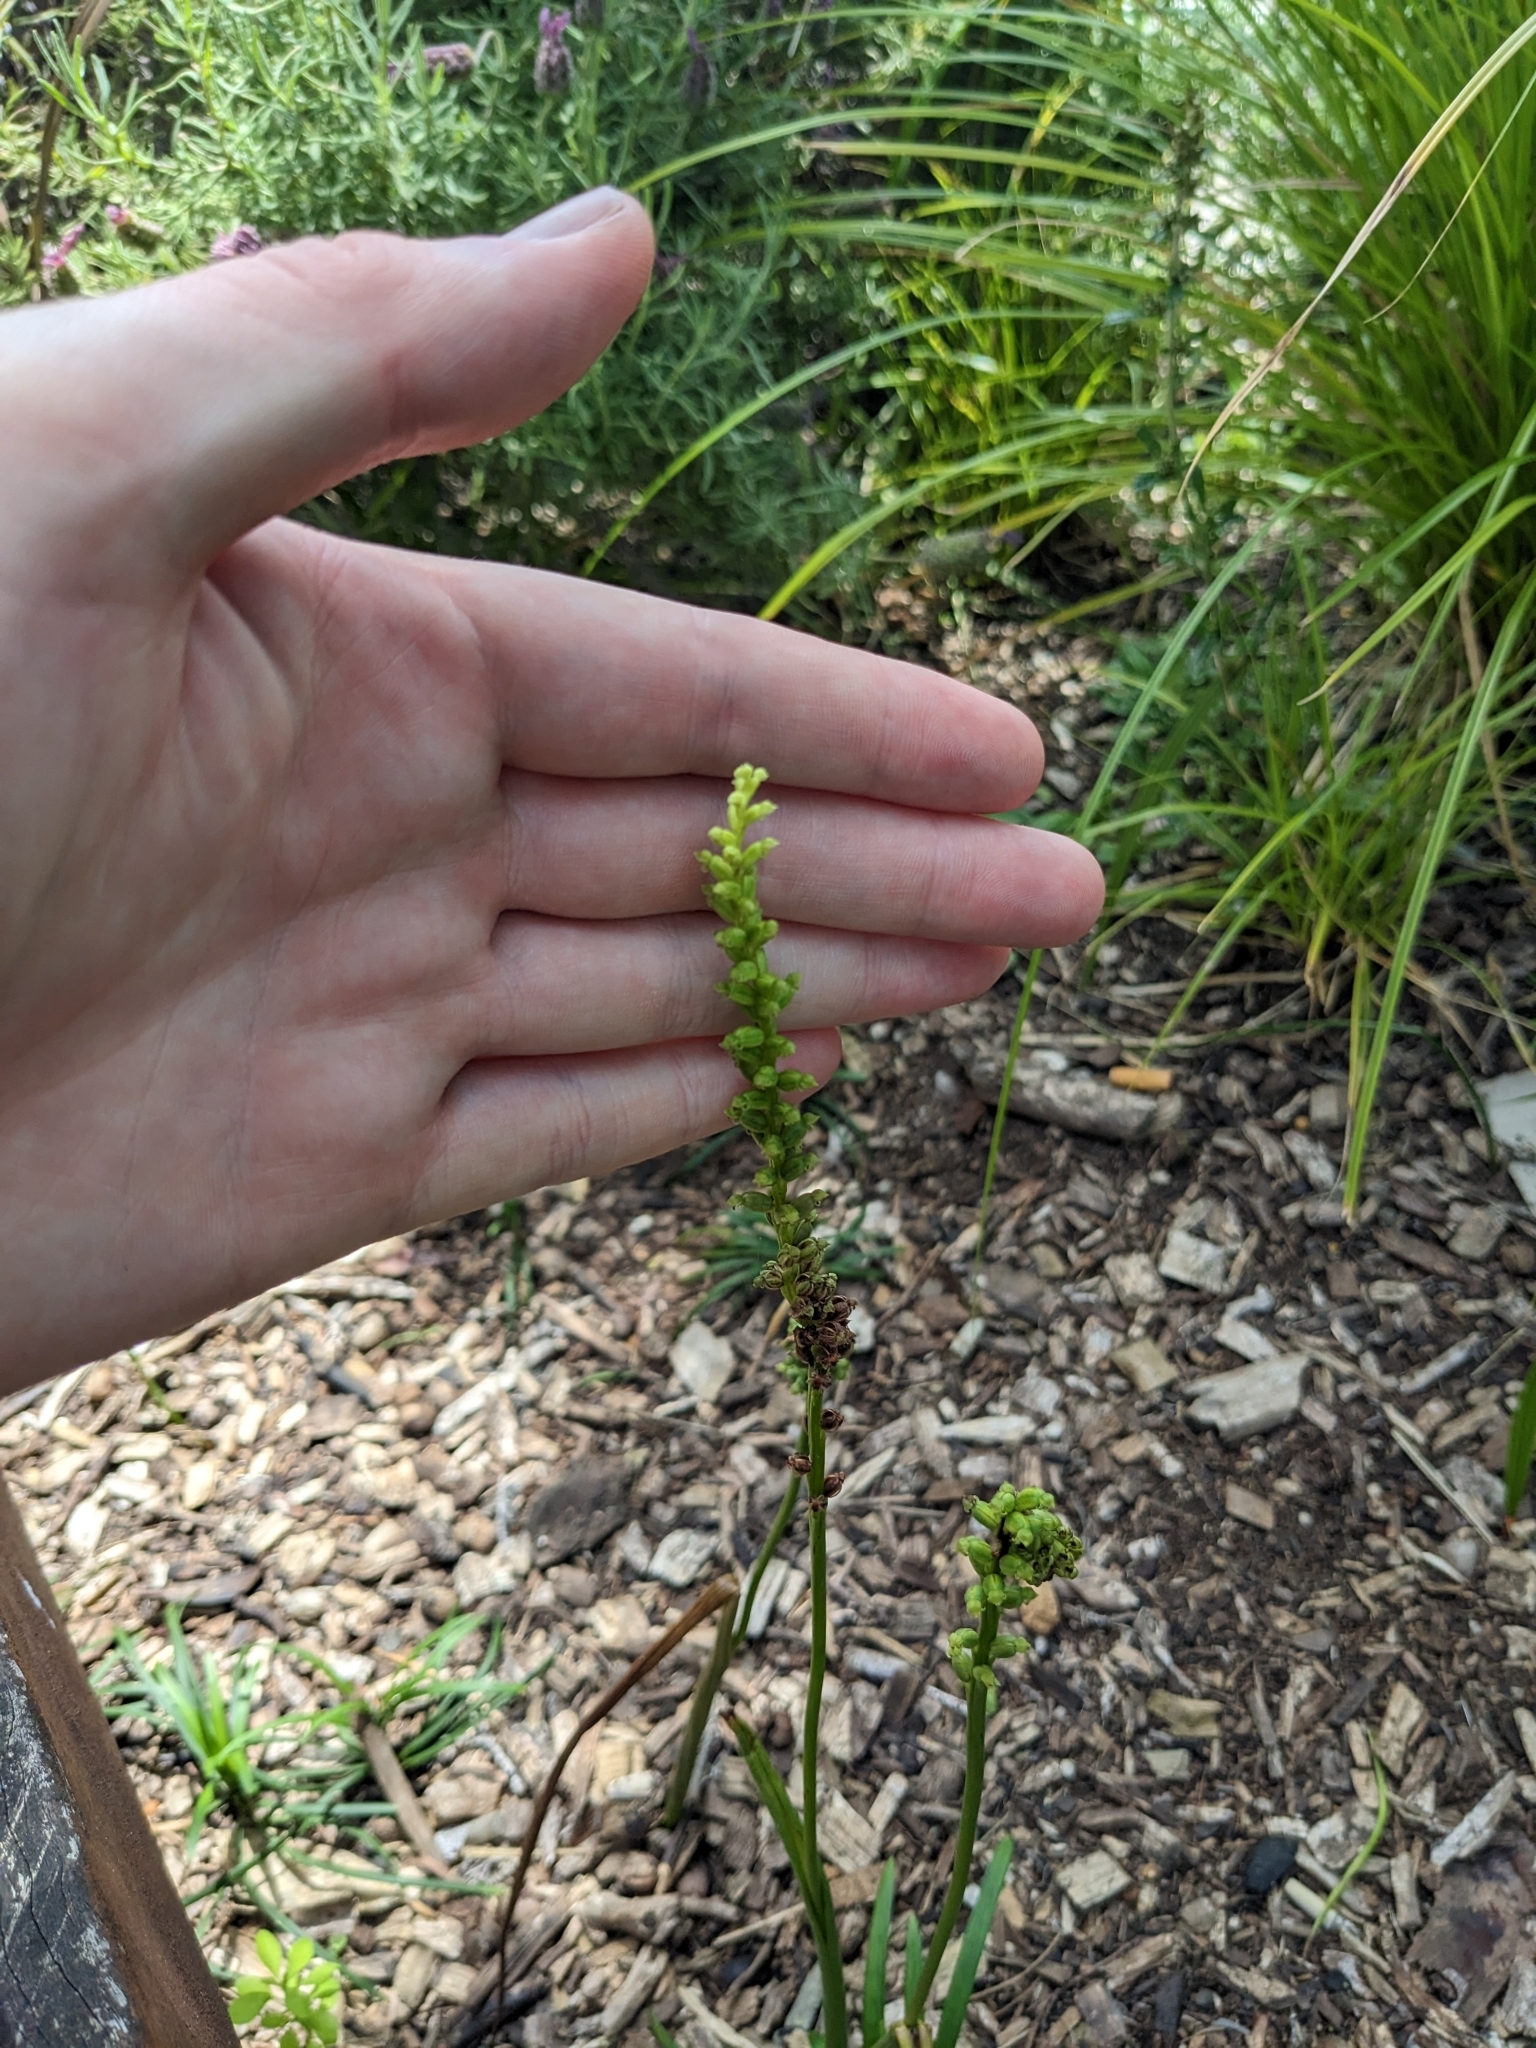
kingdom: Plantae
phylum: Tracheophyta
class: Liliopsida
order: Asparagales
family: Orchidaceae
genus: Microtis
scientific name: Microtis unifolia
